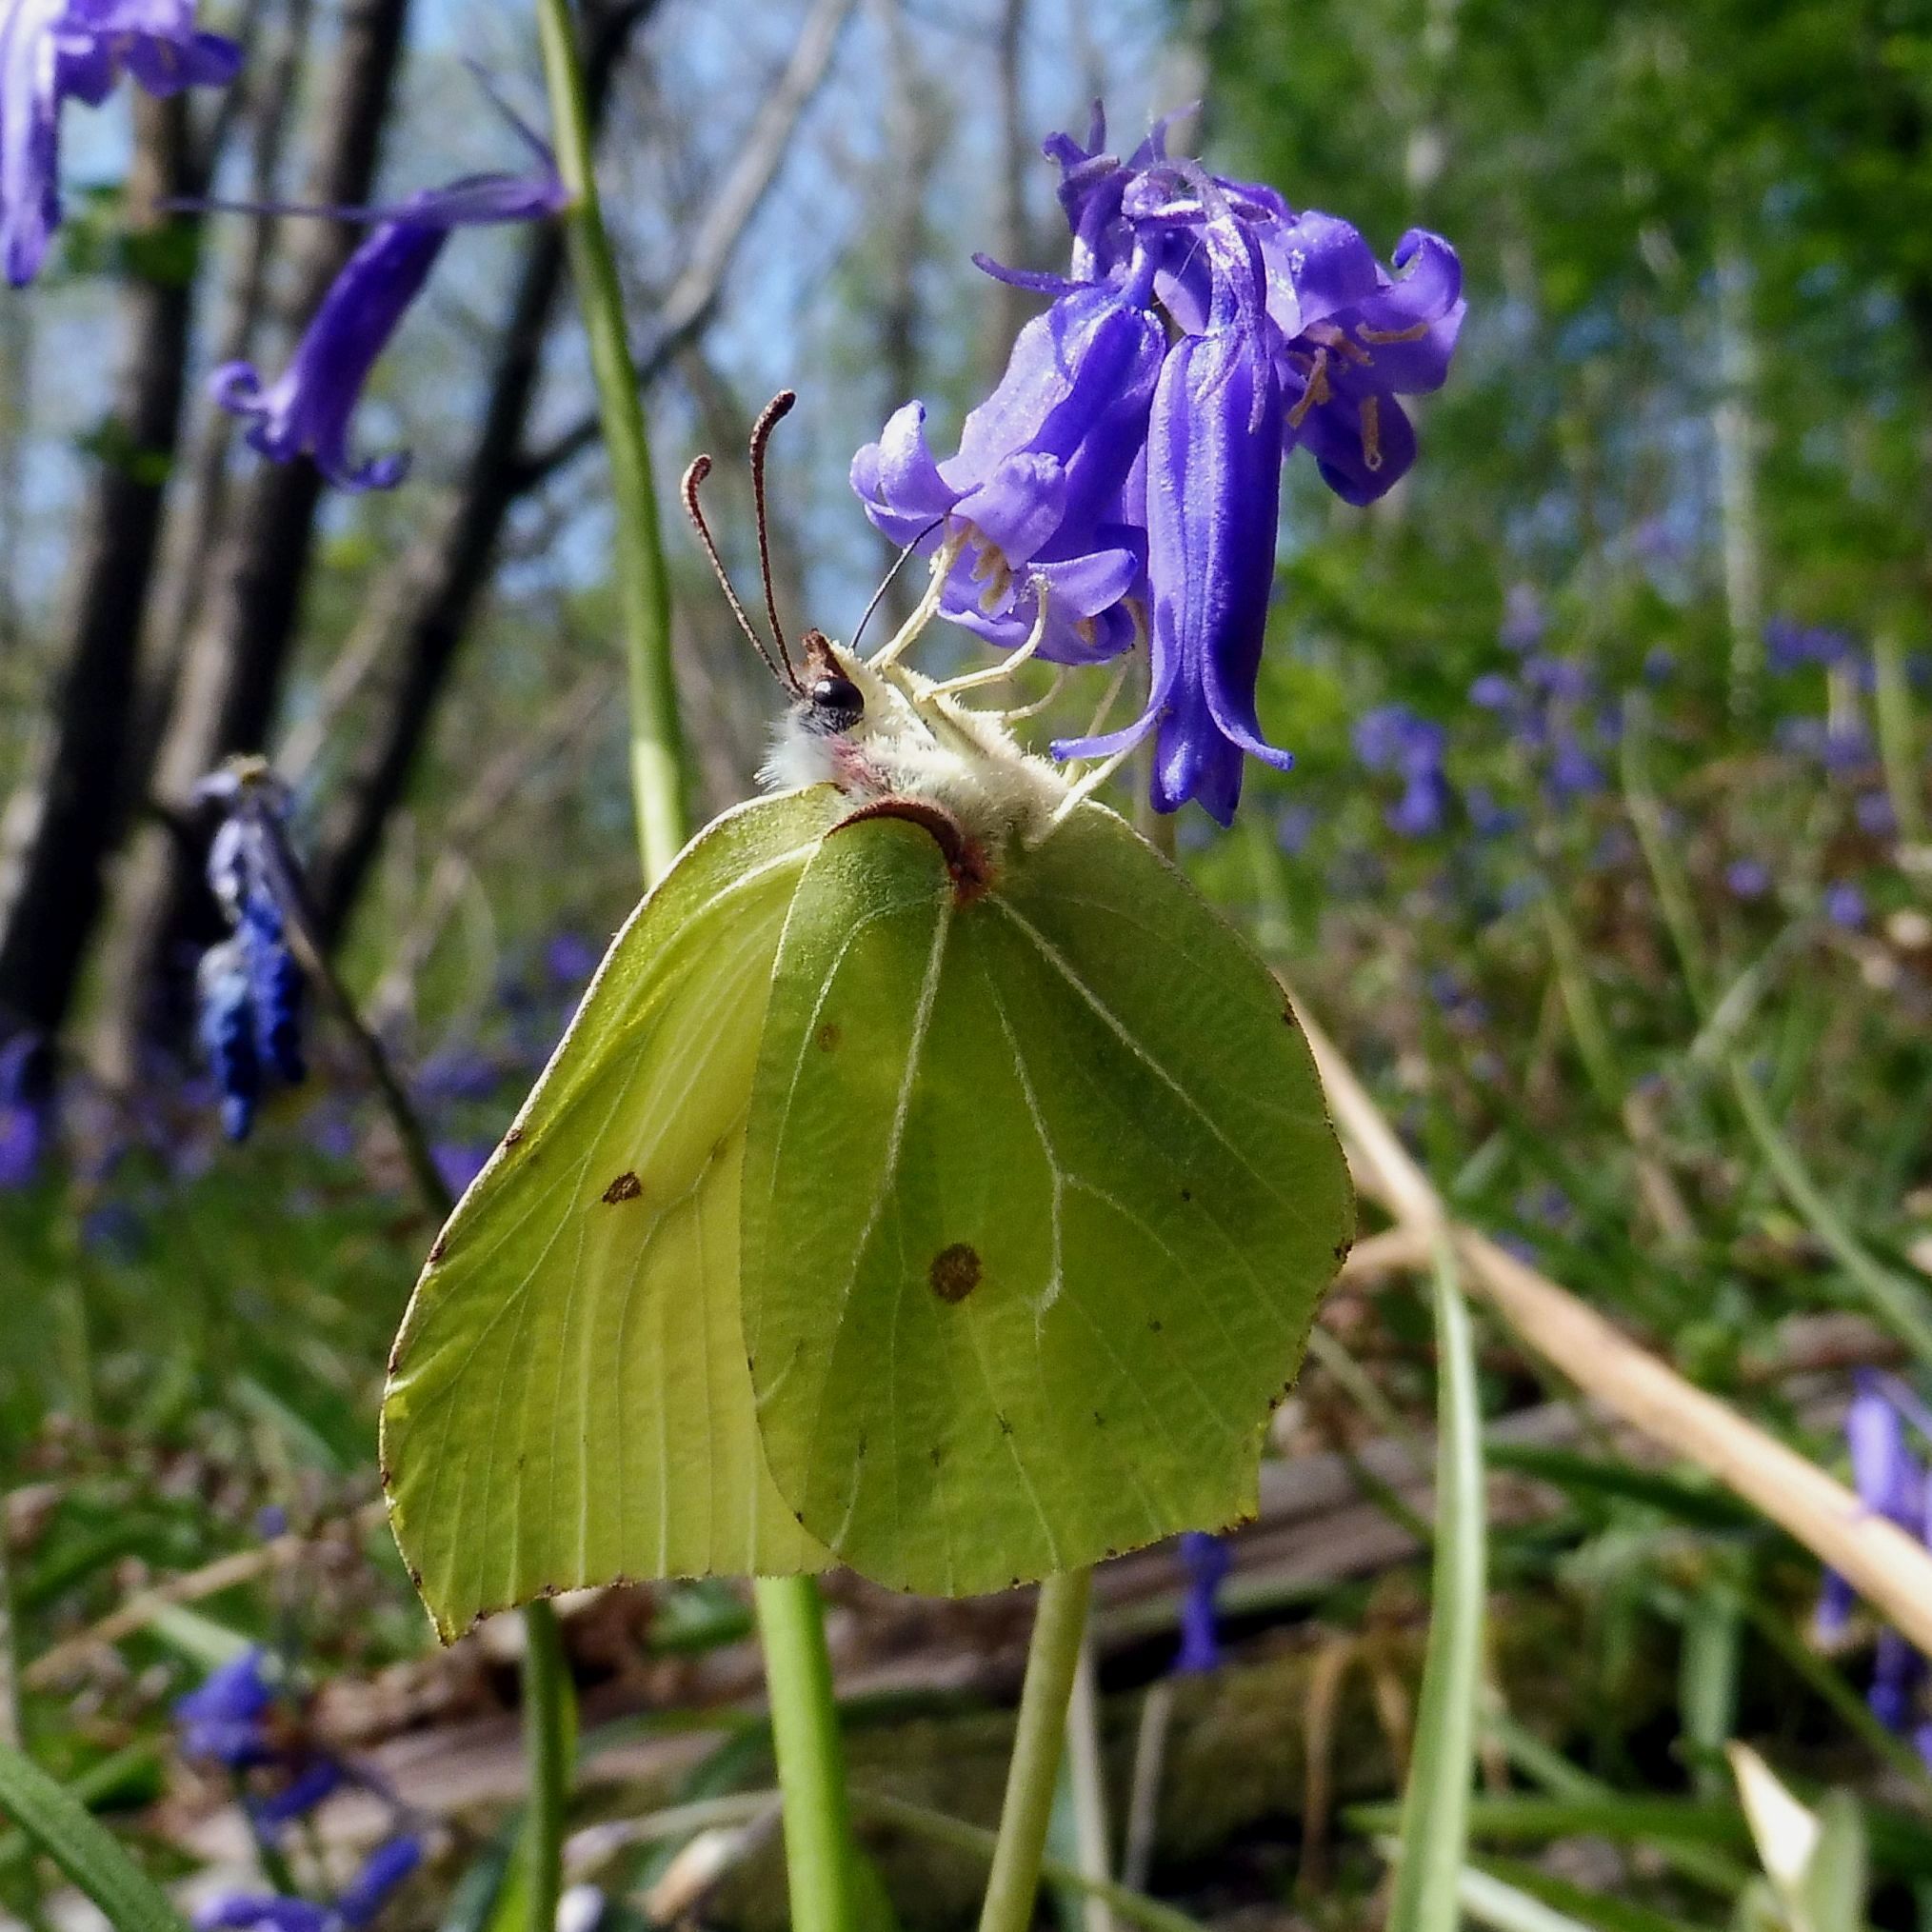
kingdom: Animalia
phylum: Arthropoda
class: Insecta
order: Lepidoptera
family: Pieridae
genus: Gonepteryx
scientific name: Gonepteryx rhamni
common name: Brimstone
